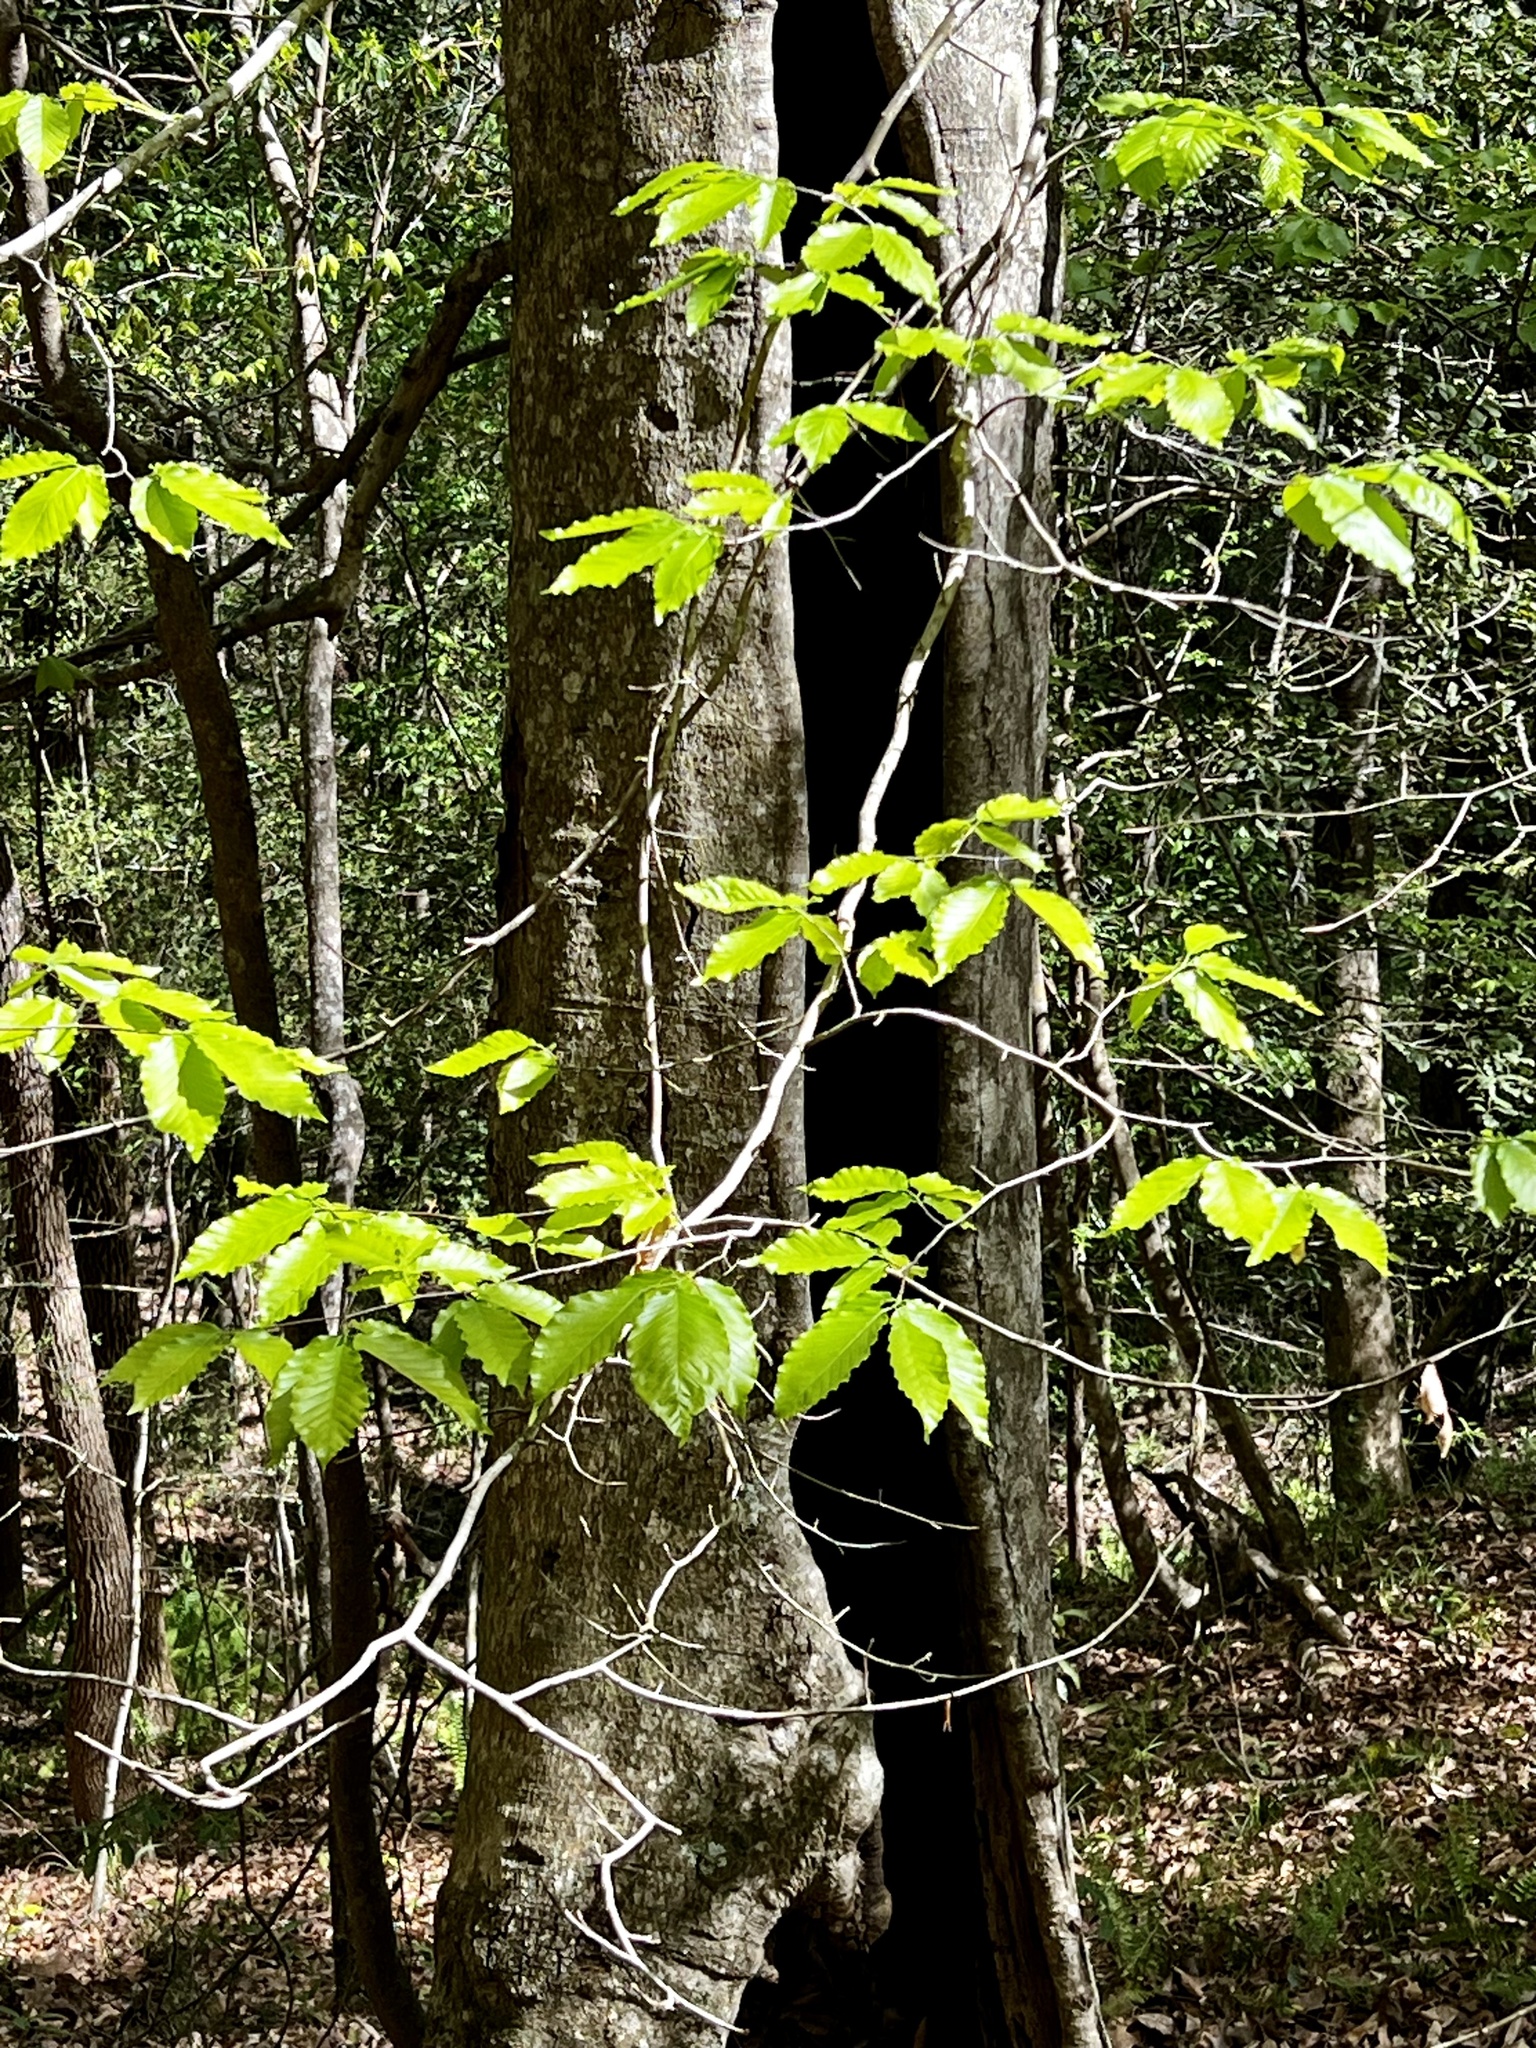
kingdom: Plantae
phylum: Tracheophyta
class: Magnoliopsida
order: Fagales
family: Fagaceae
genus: Fagus
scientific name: Fagus grandifolia
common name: American beech
